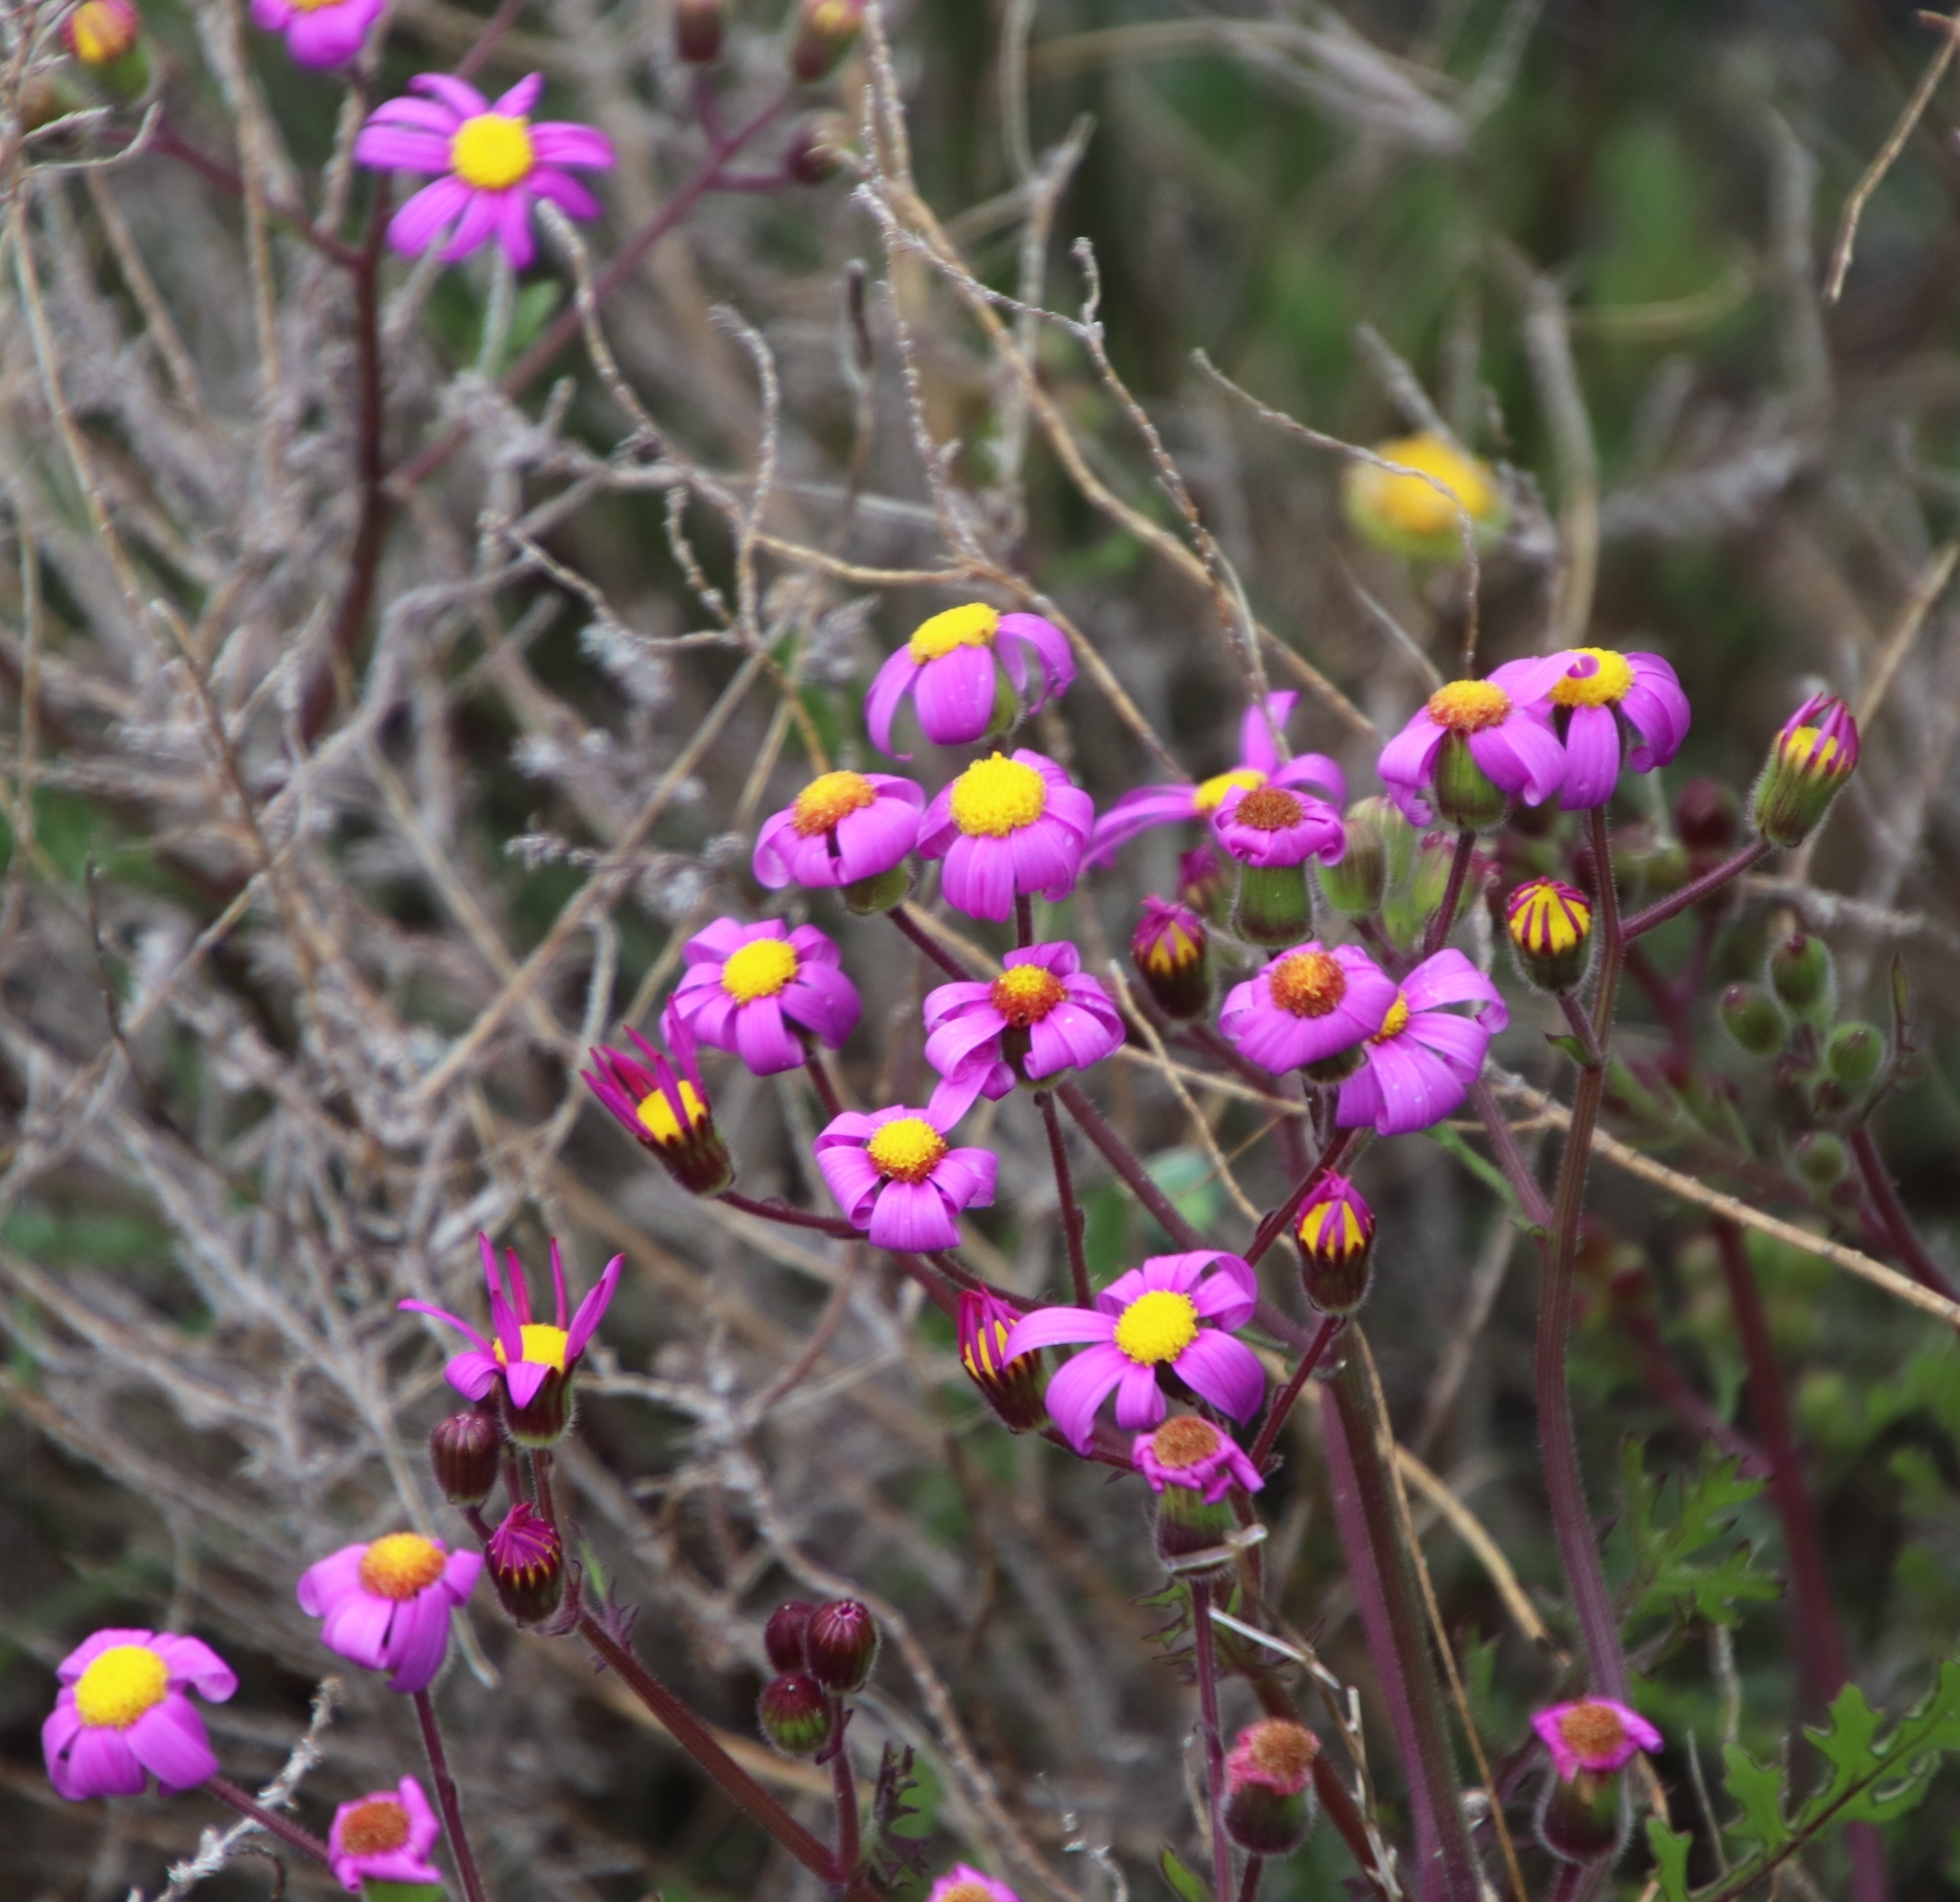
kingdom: Plantae
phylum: Tracheophyta
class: Magnoliopsida
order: Asterales
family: Asteraceae
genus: Senecio
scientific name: Senecio arenarius
